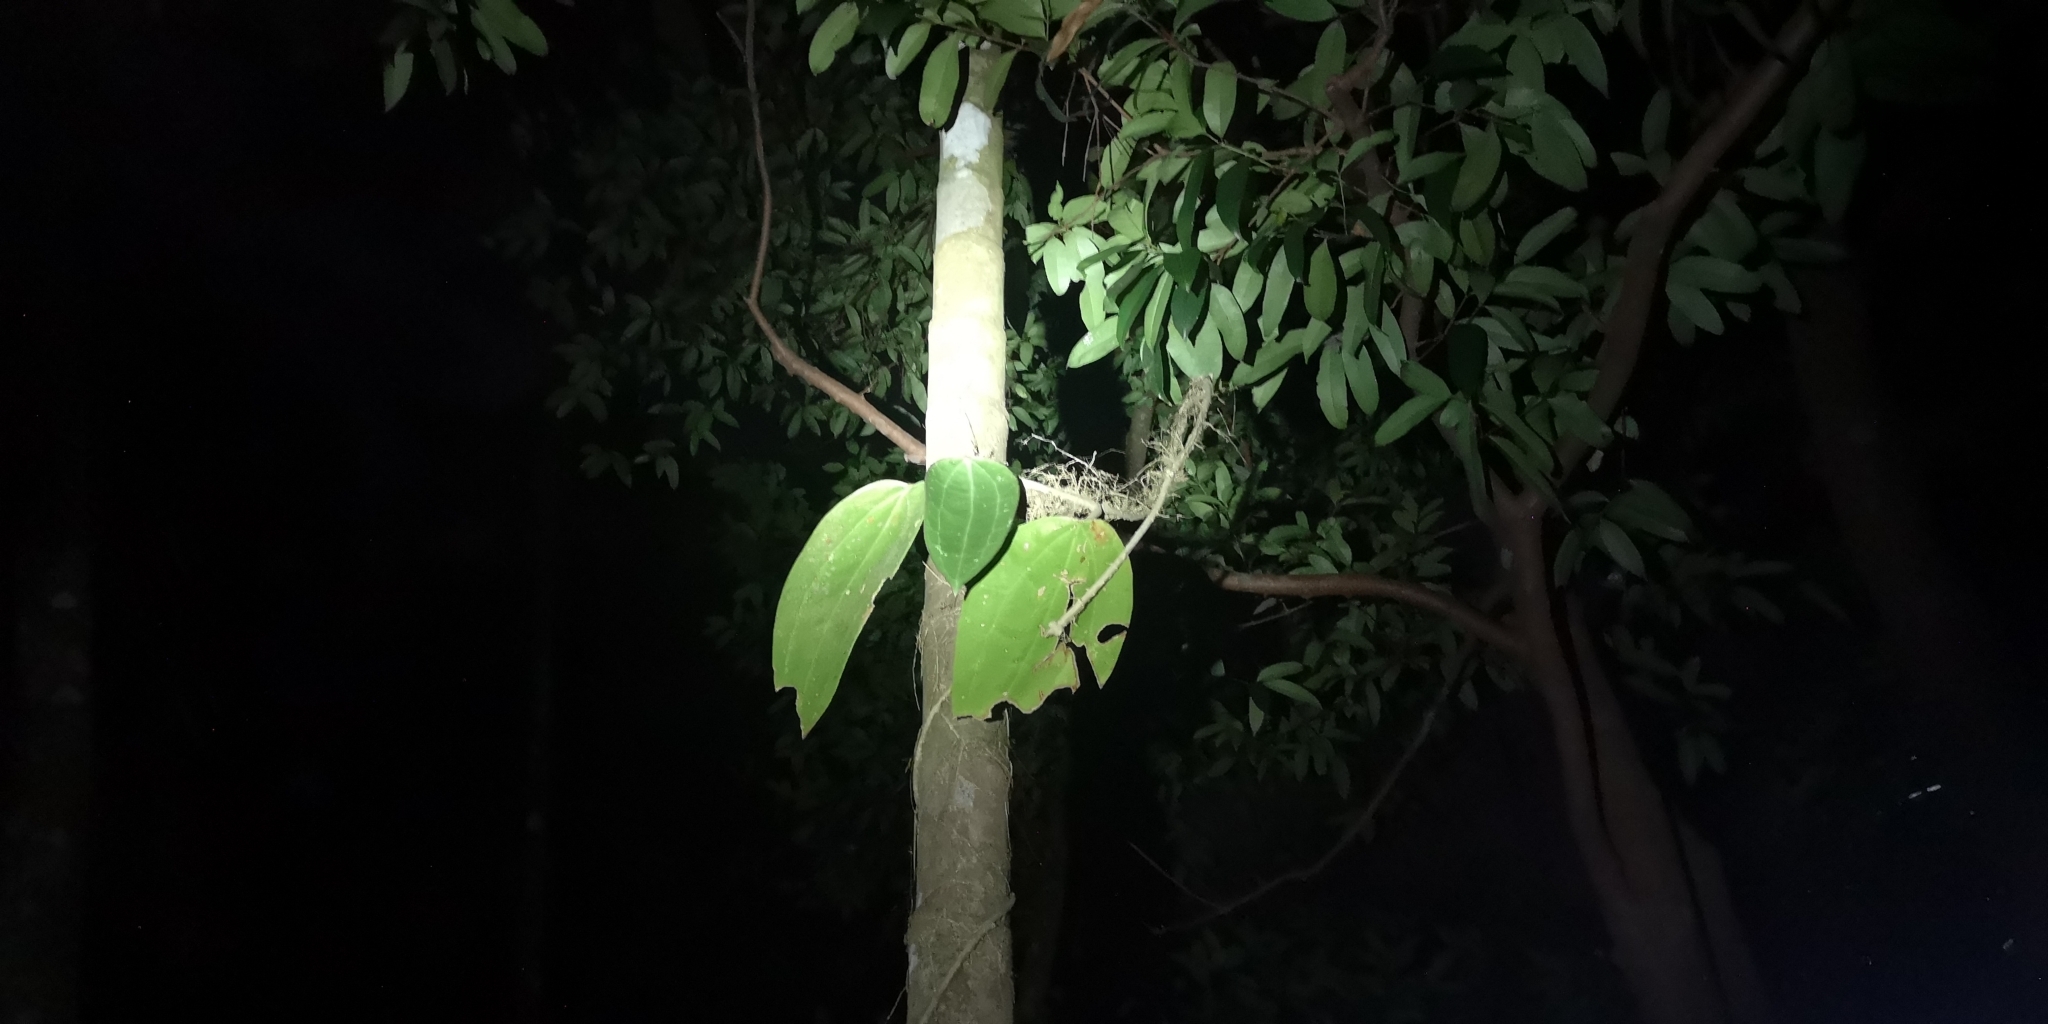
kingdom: Plantae
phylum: Tracheophyta
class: Magnoliopsida
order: Gentianales
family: Apocynaceae
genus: Hoya
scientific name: Hoya latifolia
